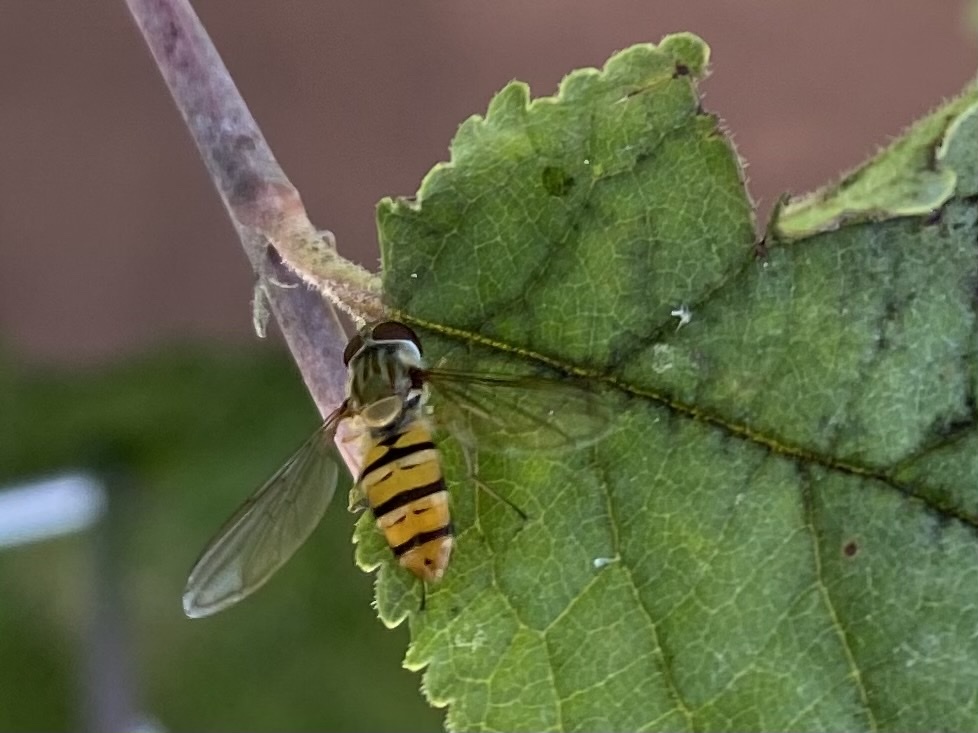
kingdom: Animalia
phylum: Arthropoda
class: Insecta
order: Diptera
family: Syrphidae
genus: Episyrphus
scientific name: Episyrphus balteatus
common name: Marmalade hoverfly
